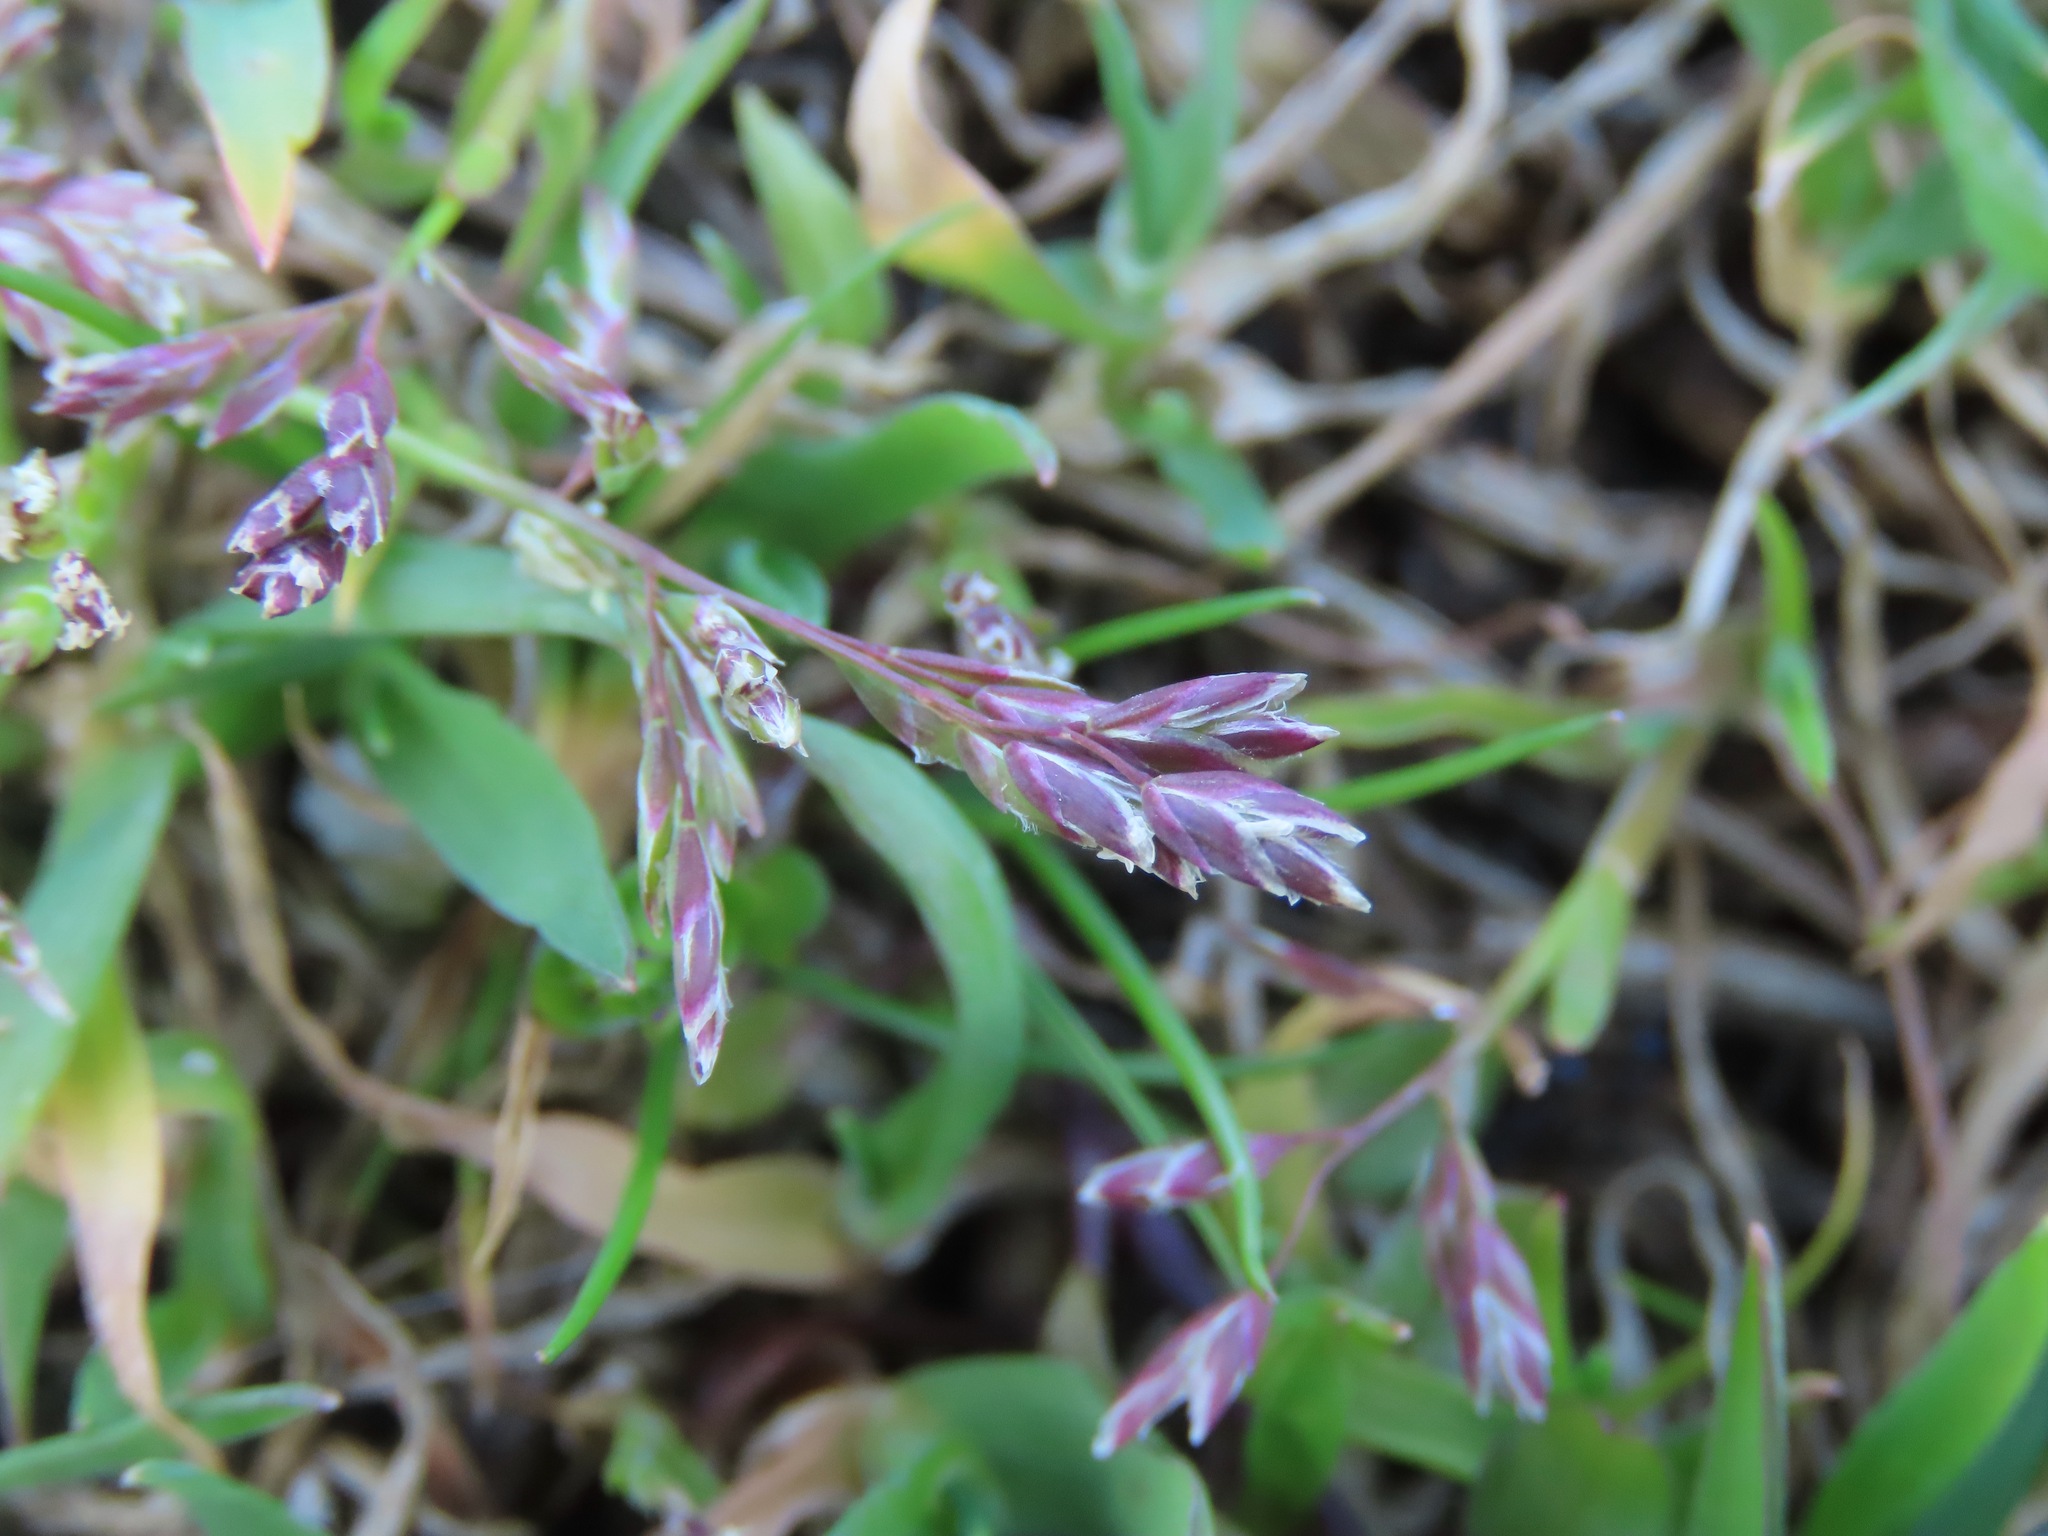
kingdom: Plantae
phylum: Tracheophyta
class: Liliopsida
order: Poales
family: Poaceae
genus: Poa
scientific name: Poa annua
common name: Annual bluegrass
